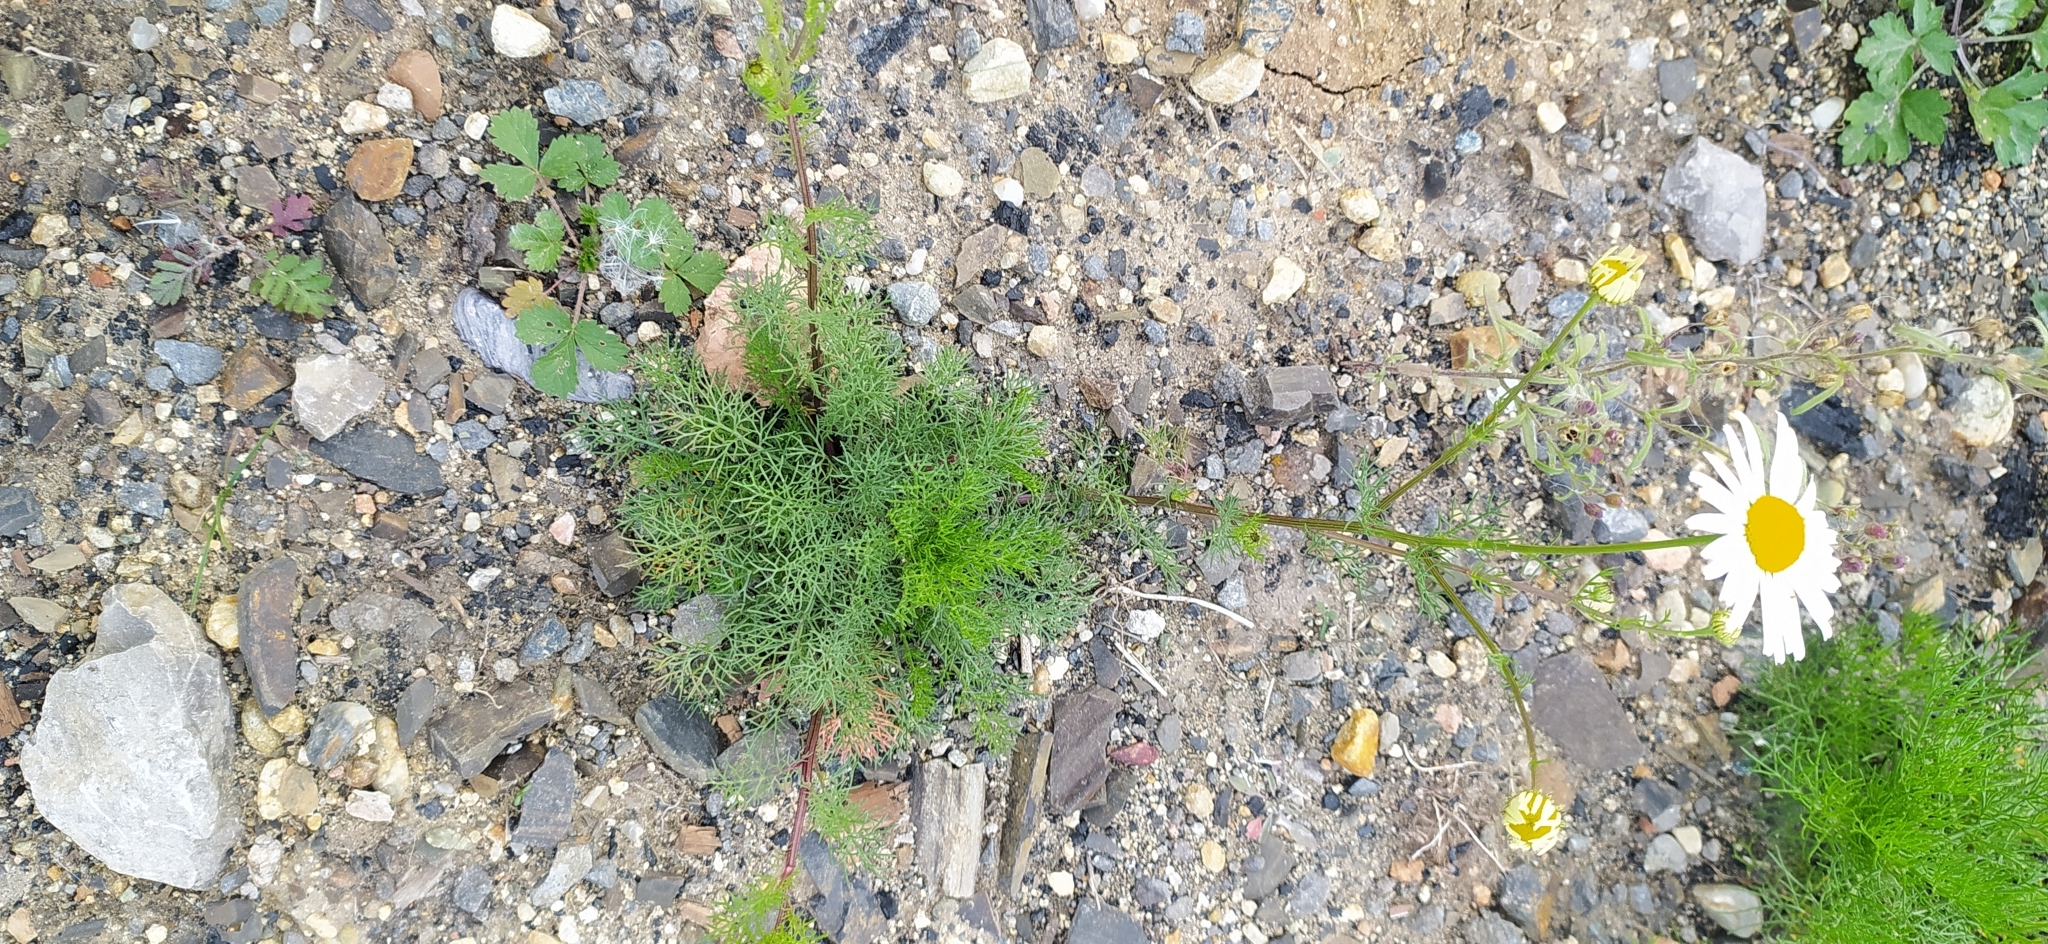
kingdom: Plantae
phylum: Tracheophyta
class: Magnoliopsida
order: Asterales
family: Asteraceae
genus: Tripleurospermum
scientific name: Tripleurospermum inodorum
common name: Scentless mayweed
